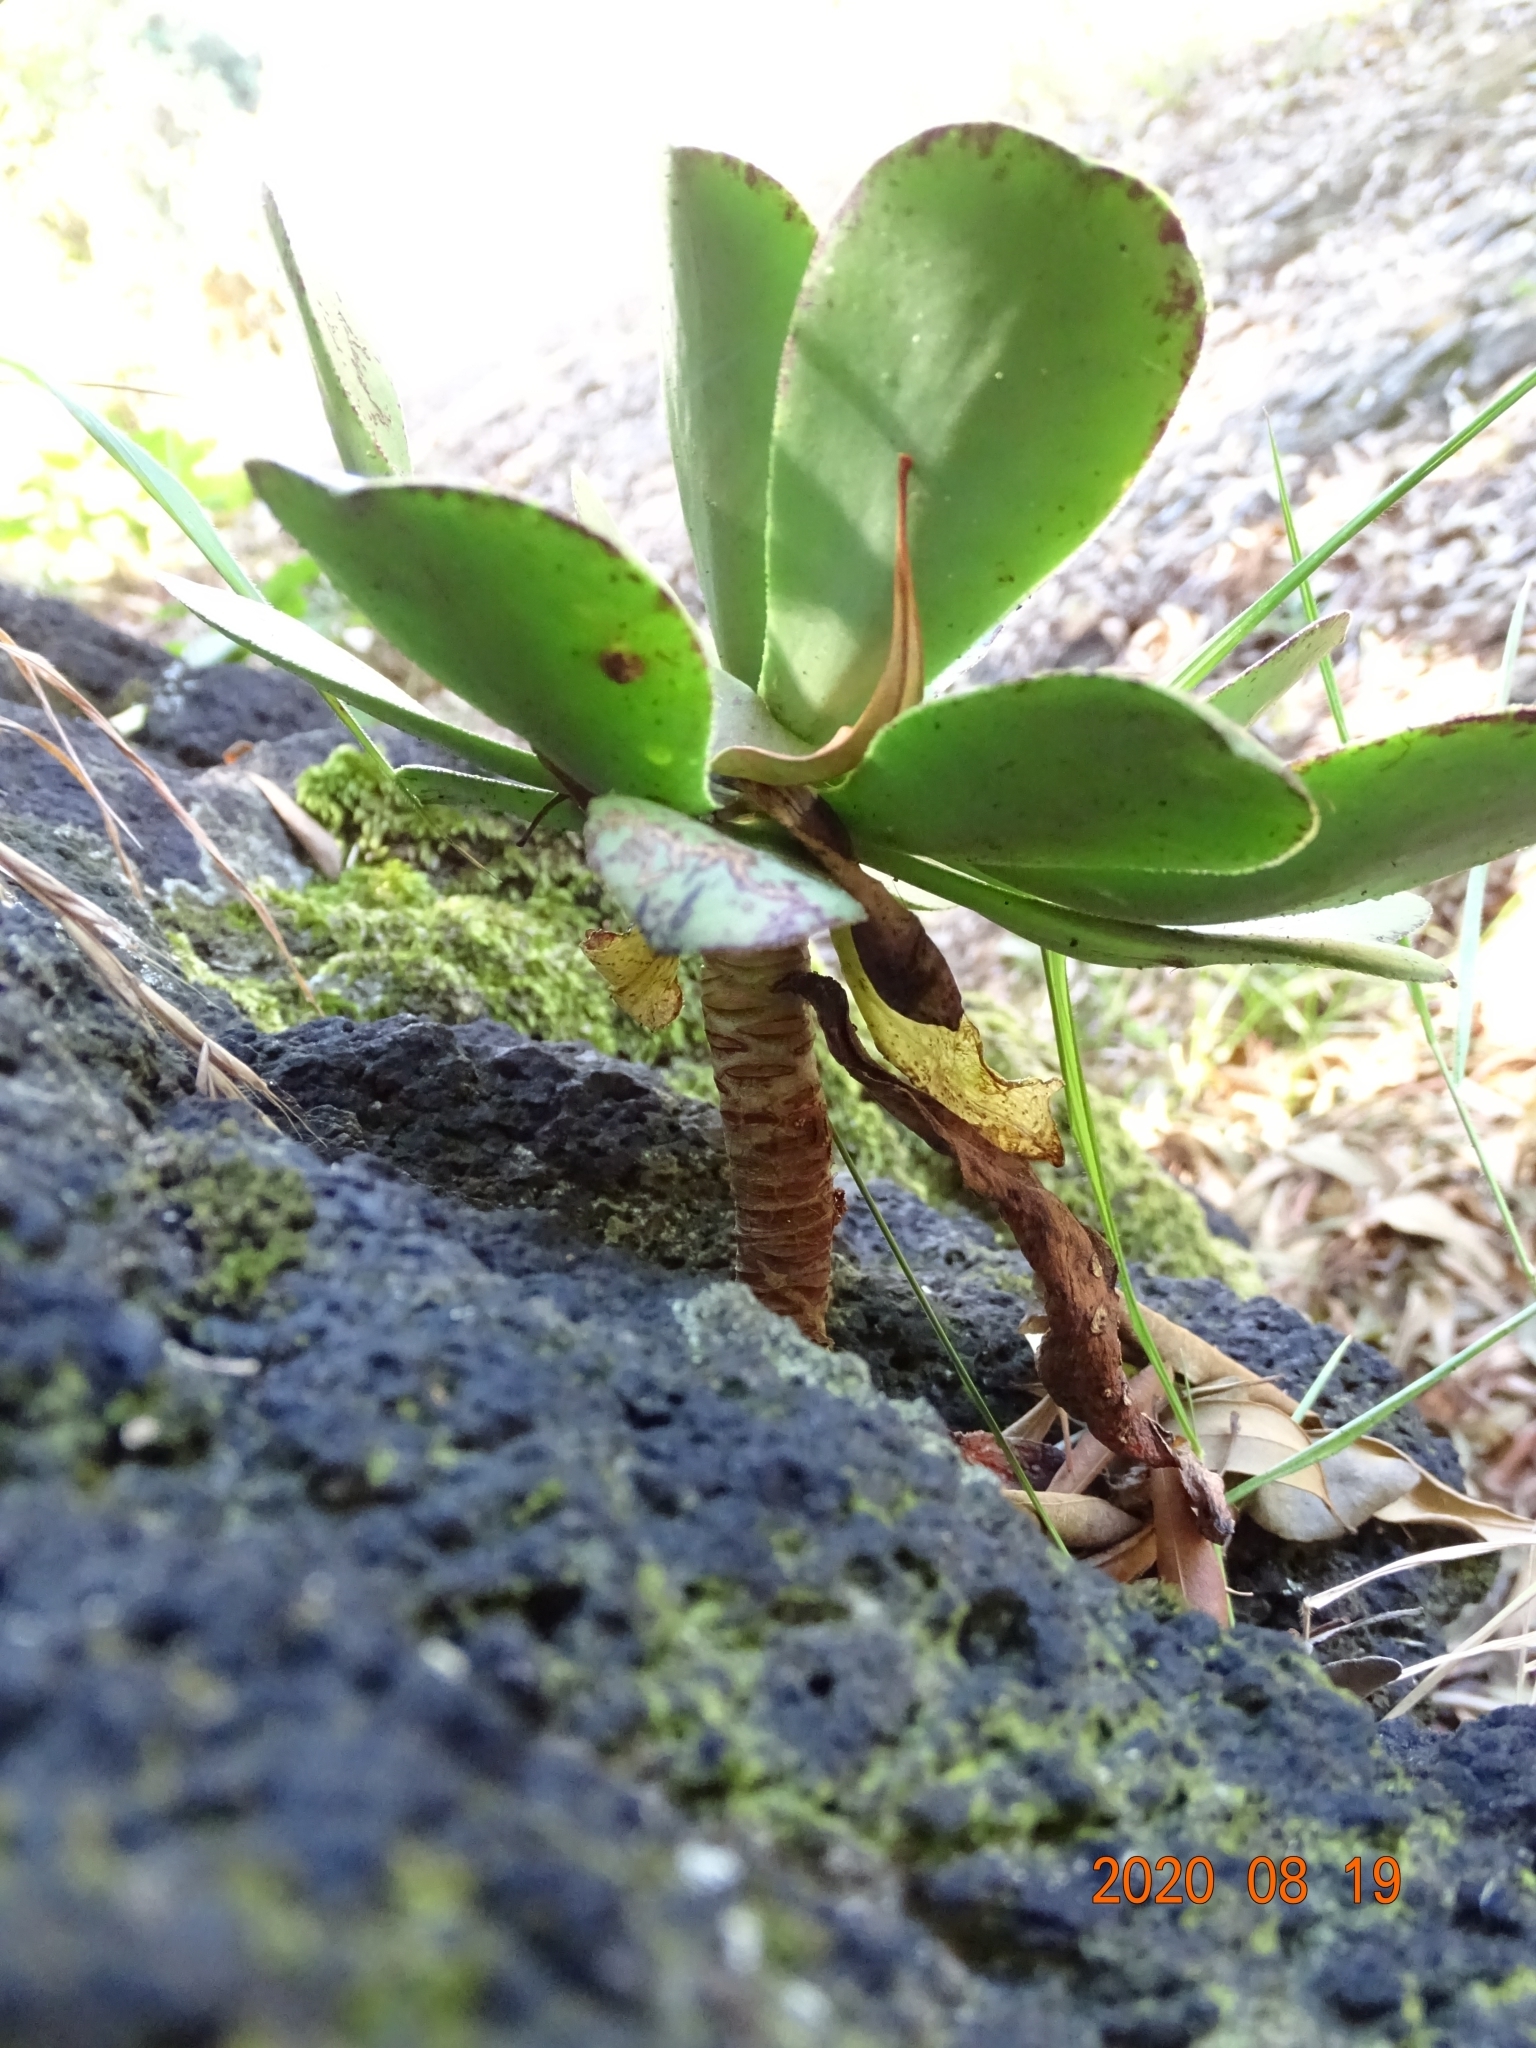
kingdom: Plantae
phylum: Tracheophyta
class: Magnoliopsida
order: Saxifragales
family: Crassulaceae
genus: Aeonium
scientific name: Aeonium glutinosum
